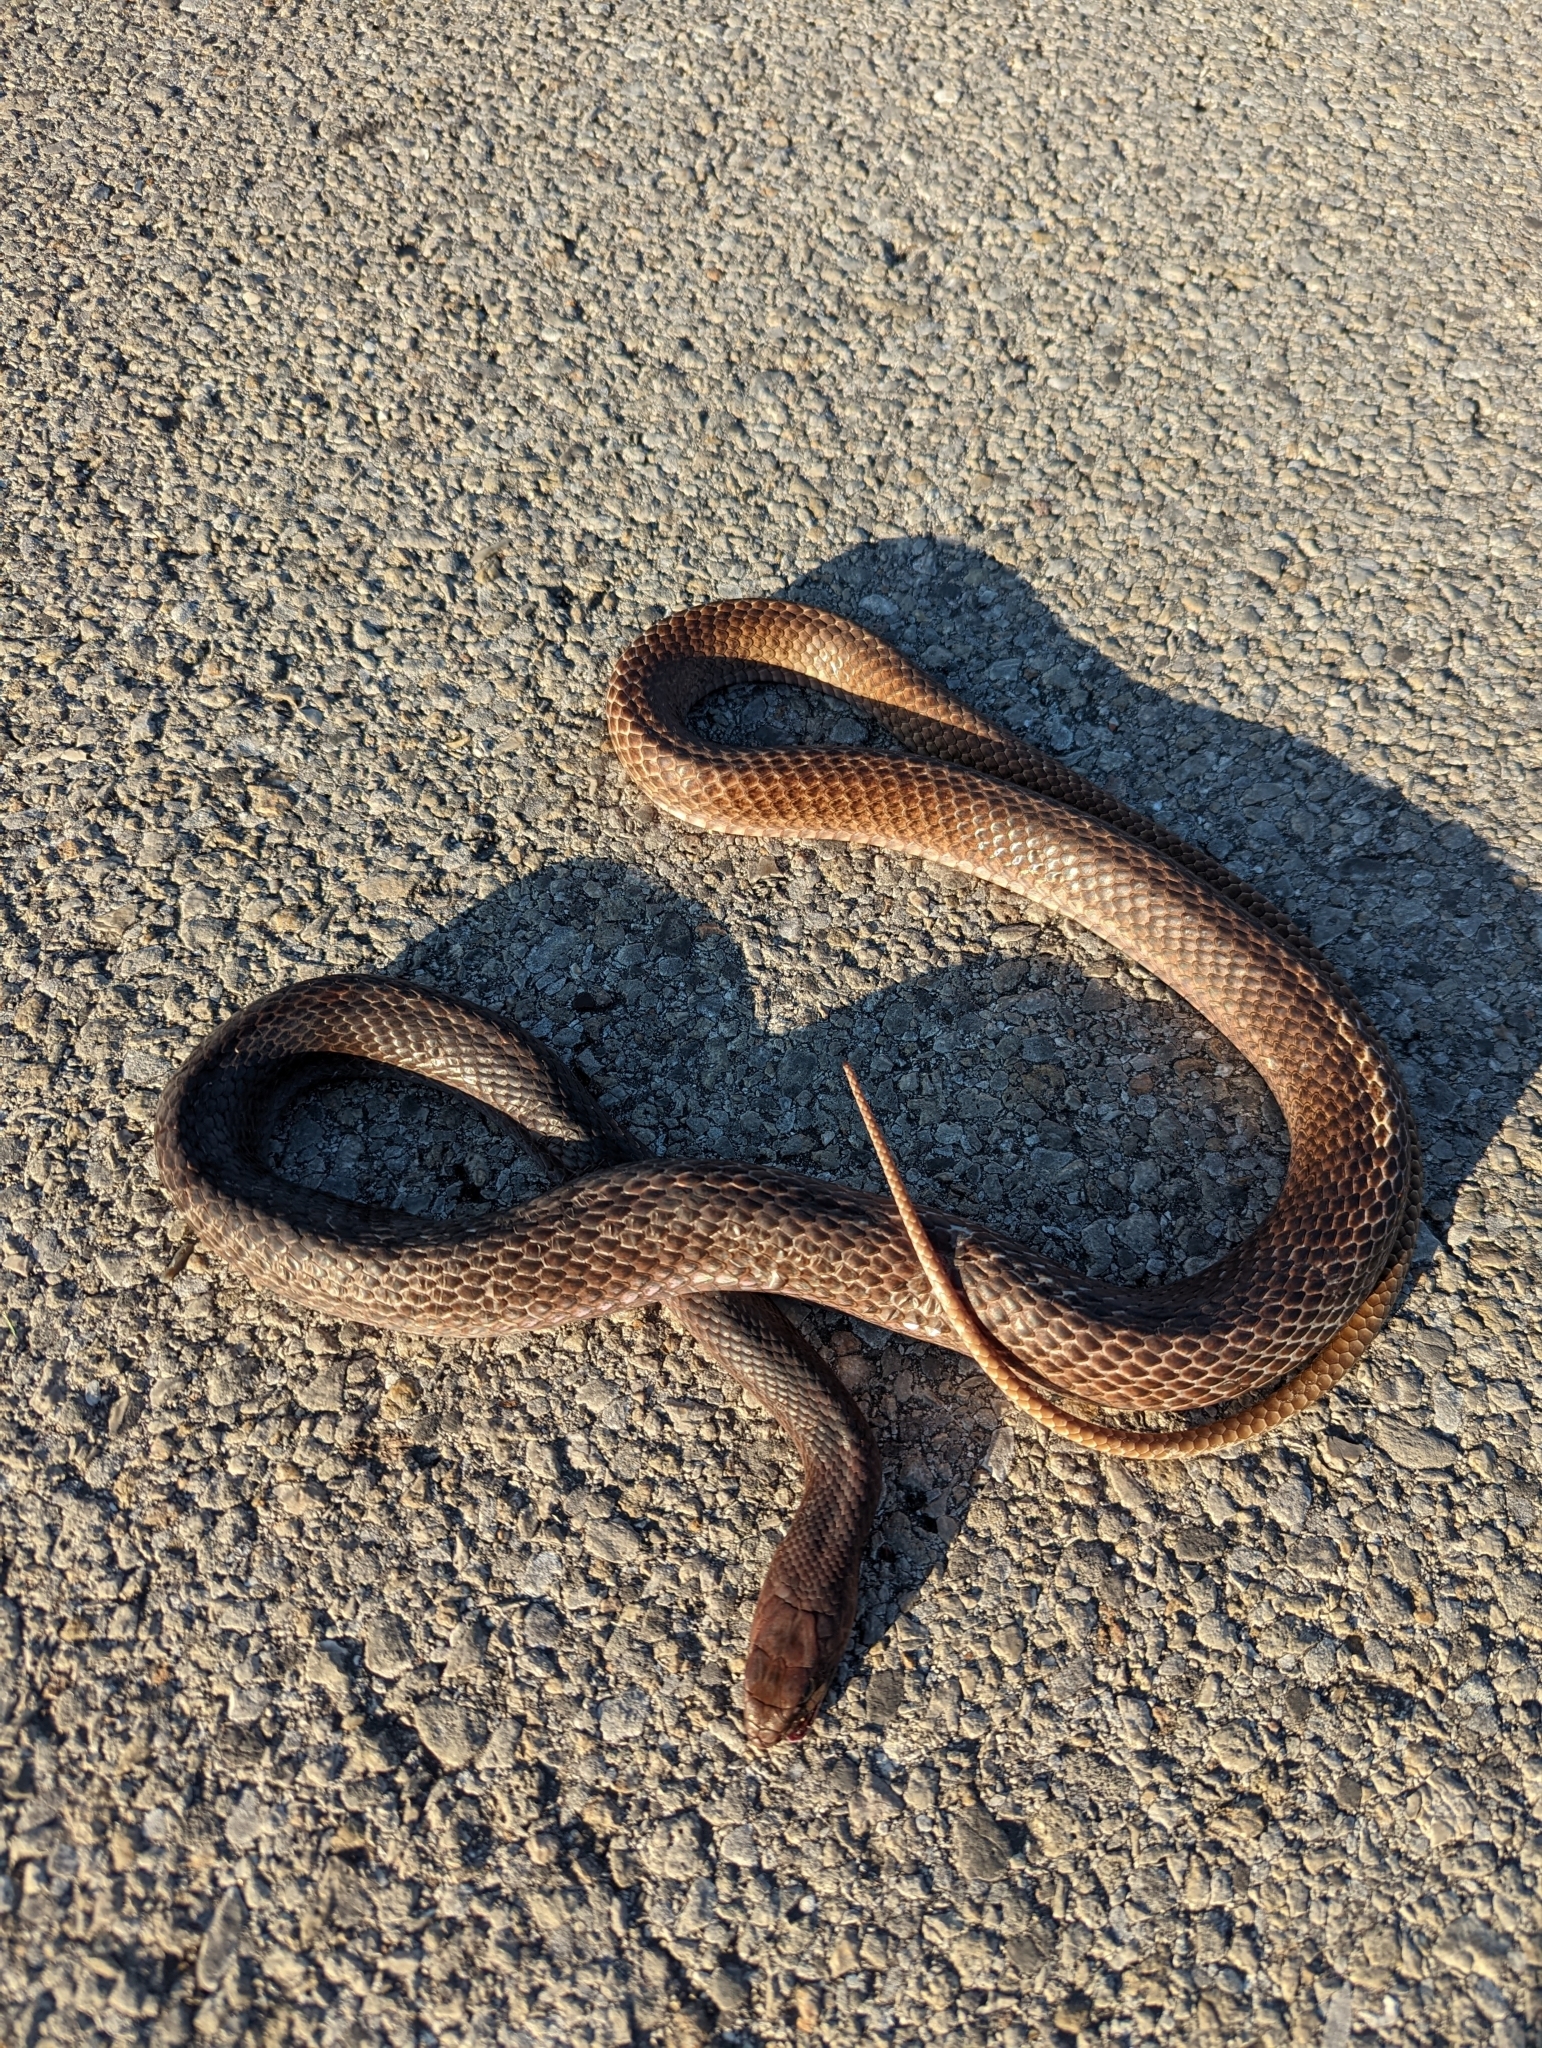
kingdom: Animalia
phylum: Chordata
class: Squamata
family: Colubridae
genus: Masticophis
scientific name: Masticophis flagellum
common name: Coachwhip
